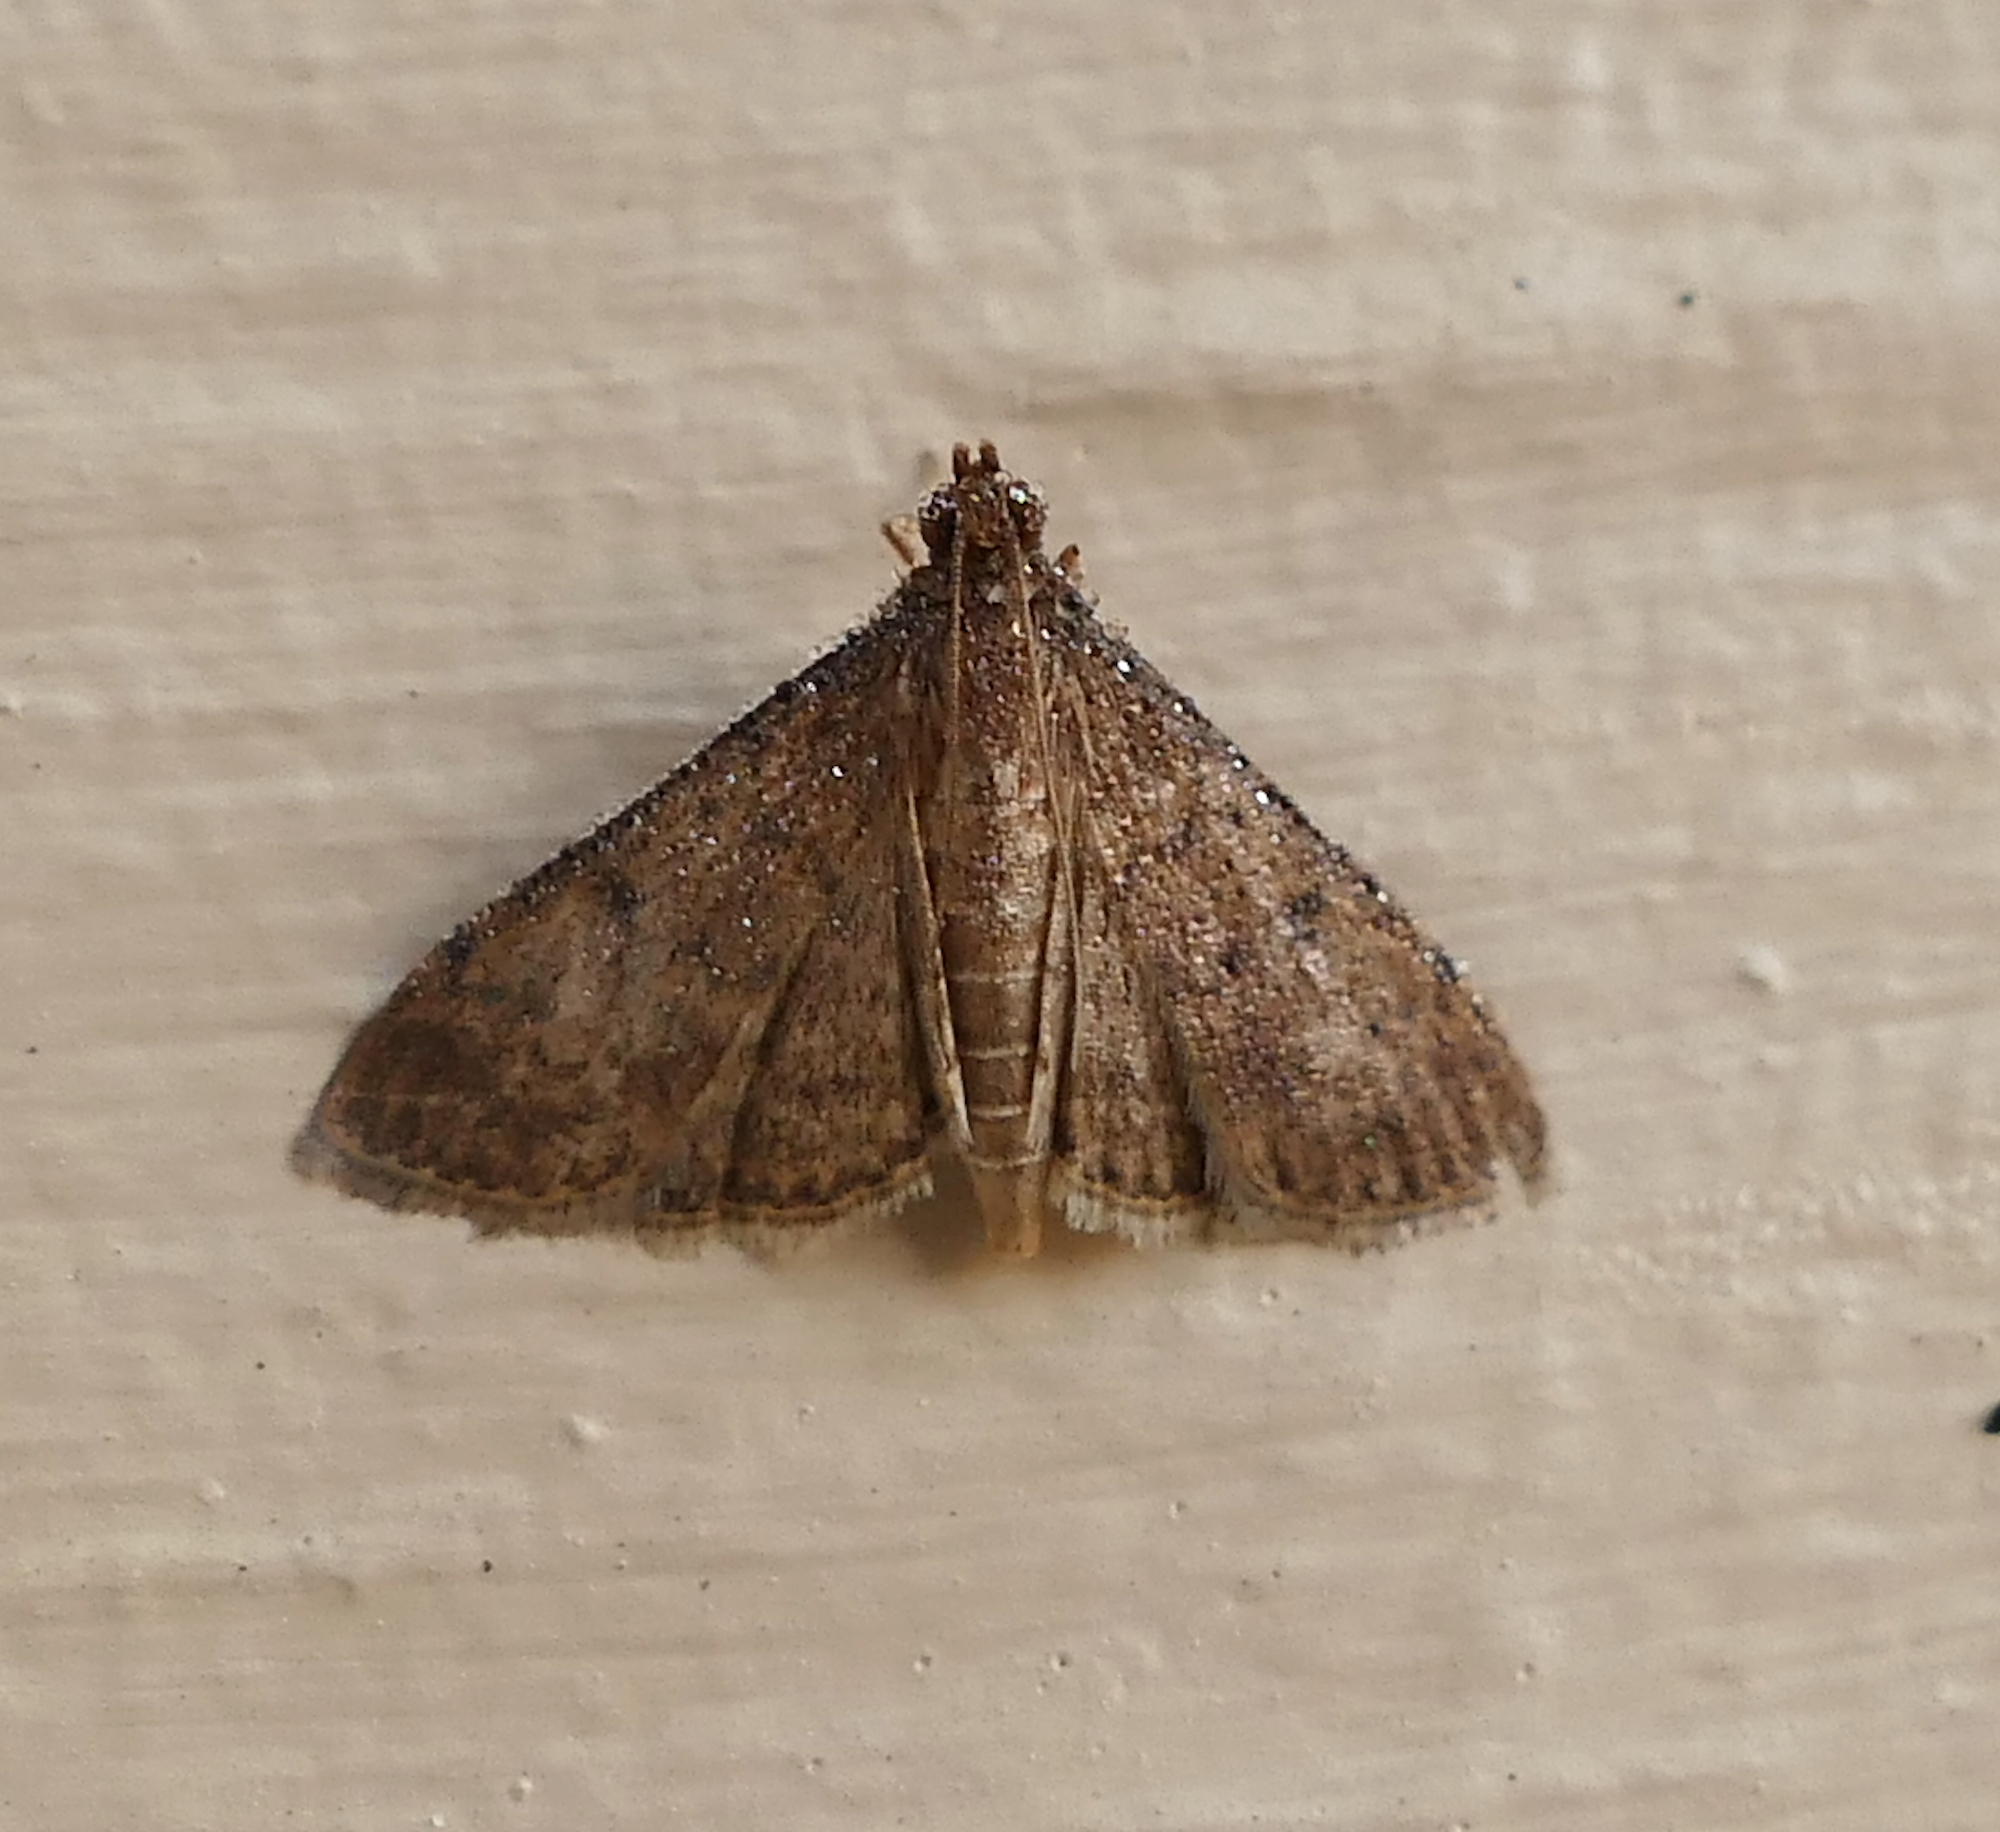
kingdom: Animalia
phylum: Arthropoda
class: Insecta
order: Lepidoptera
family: Crambidae
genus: Herpetogramma
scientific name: Herpetogramma phaeopteralis
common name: Dusky herpetogramma moth
